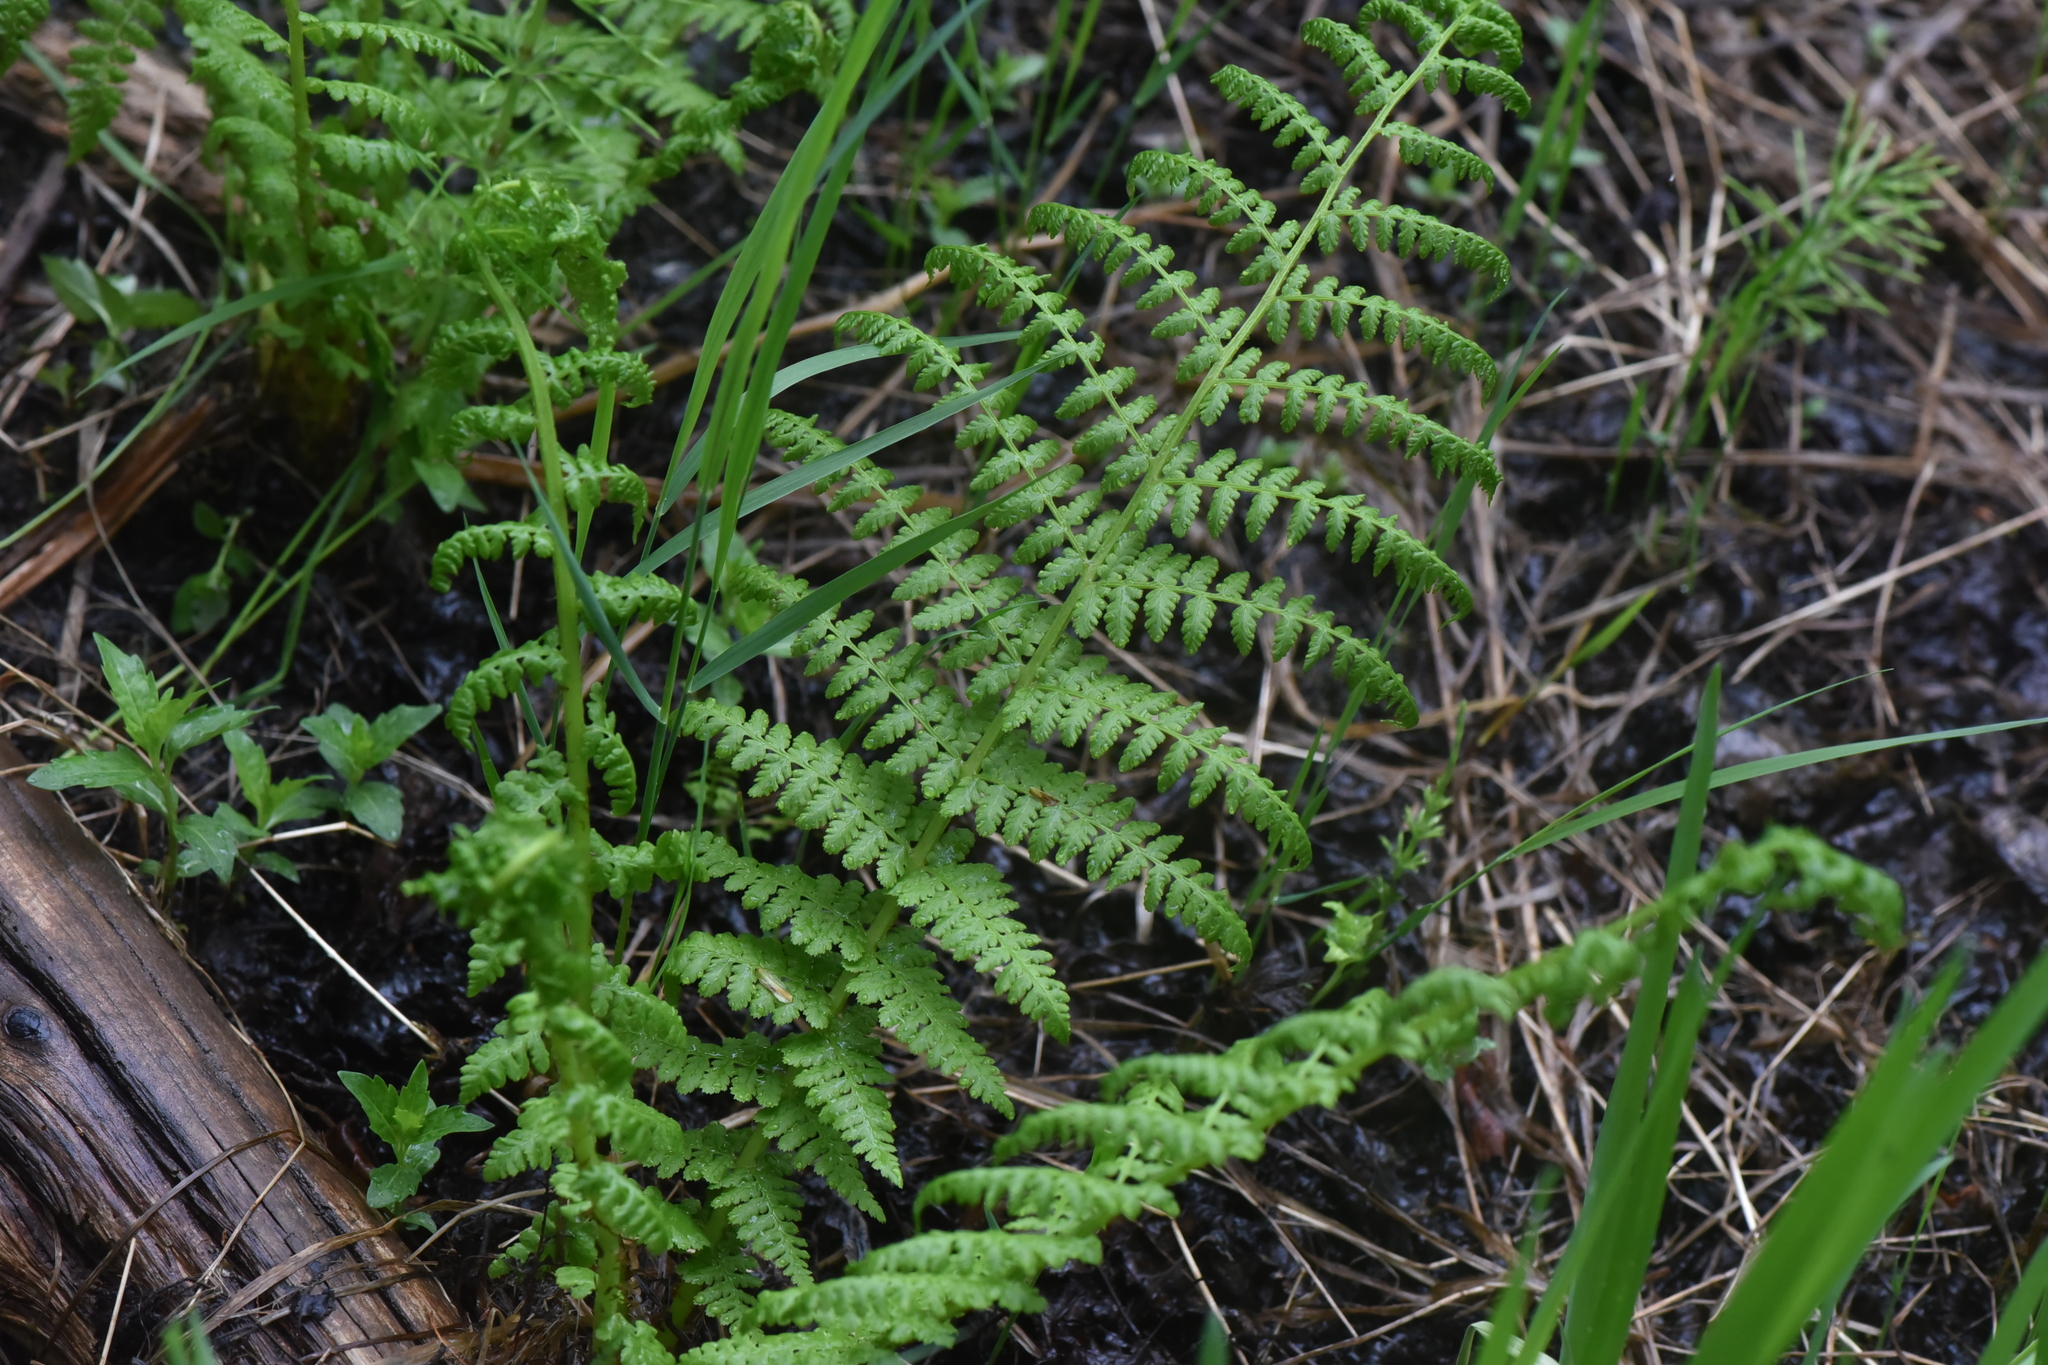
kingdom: Plantae
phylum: Tracheophyta
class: Polypodiopsida
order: Polypodiales
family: Athyriaceae
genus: Athyrium
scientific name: Athyrium filix-femina
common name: Lady fern
